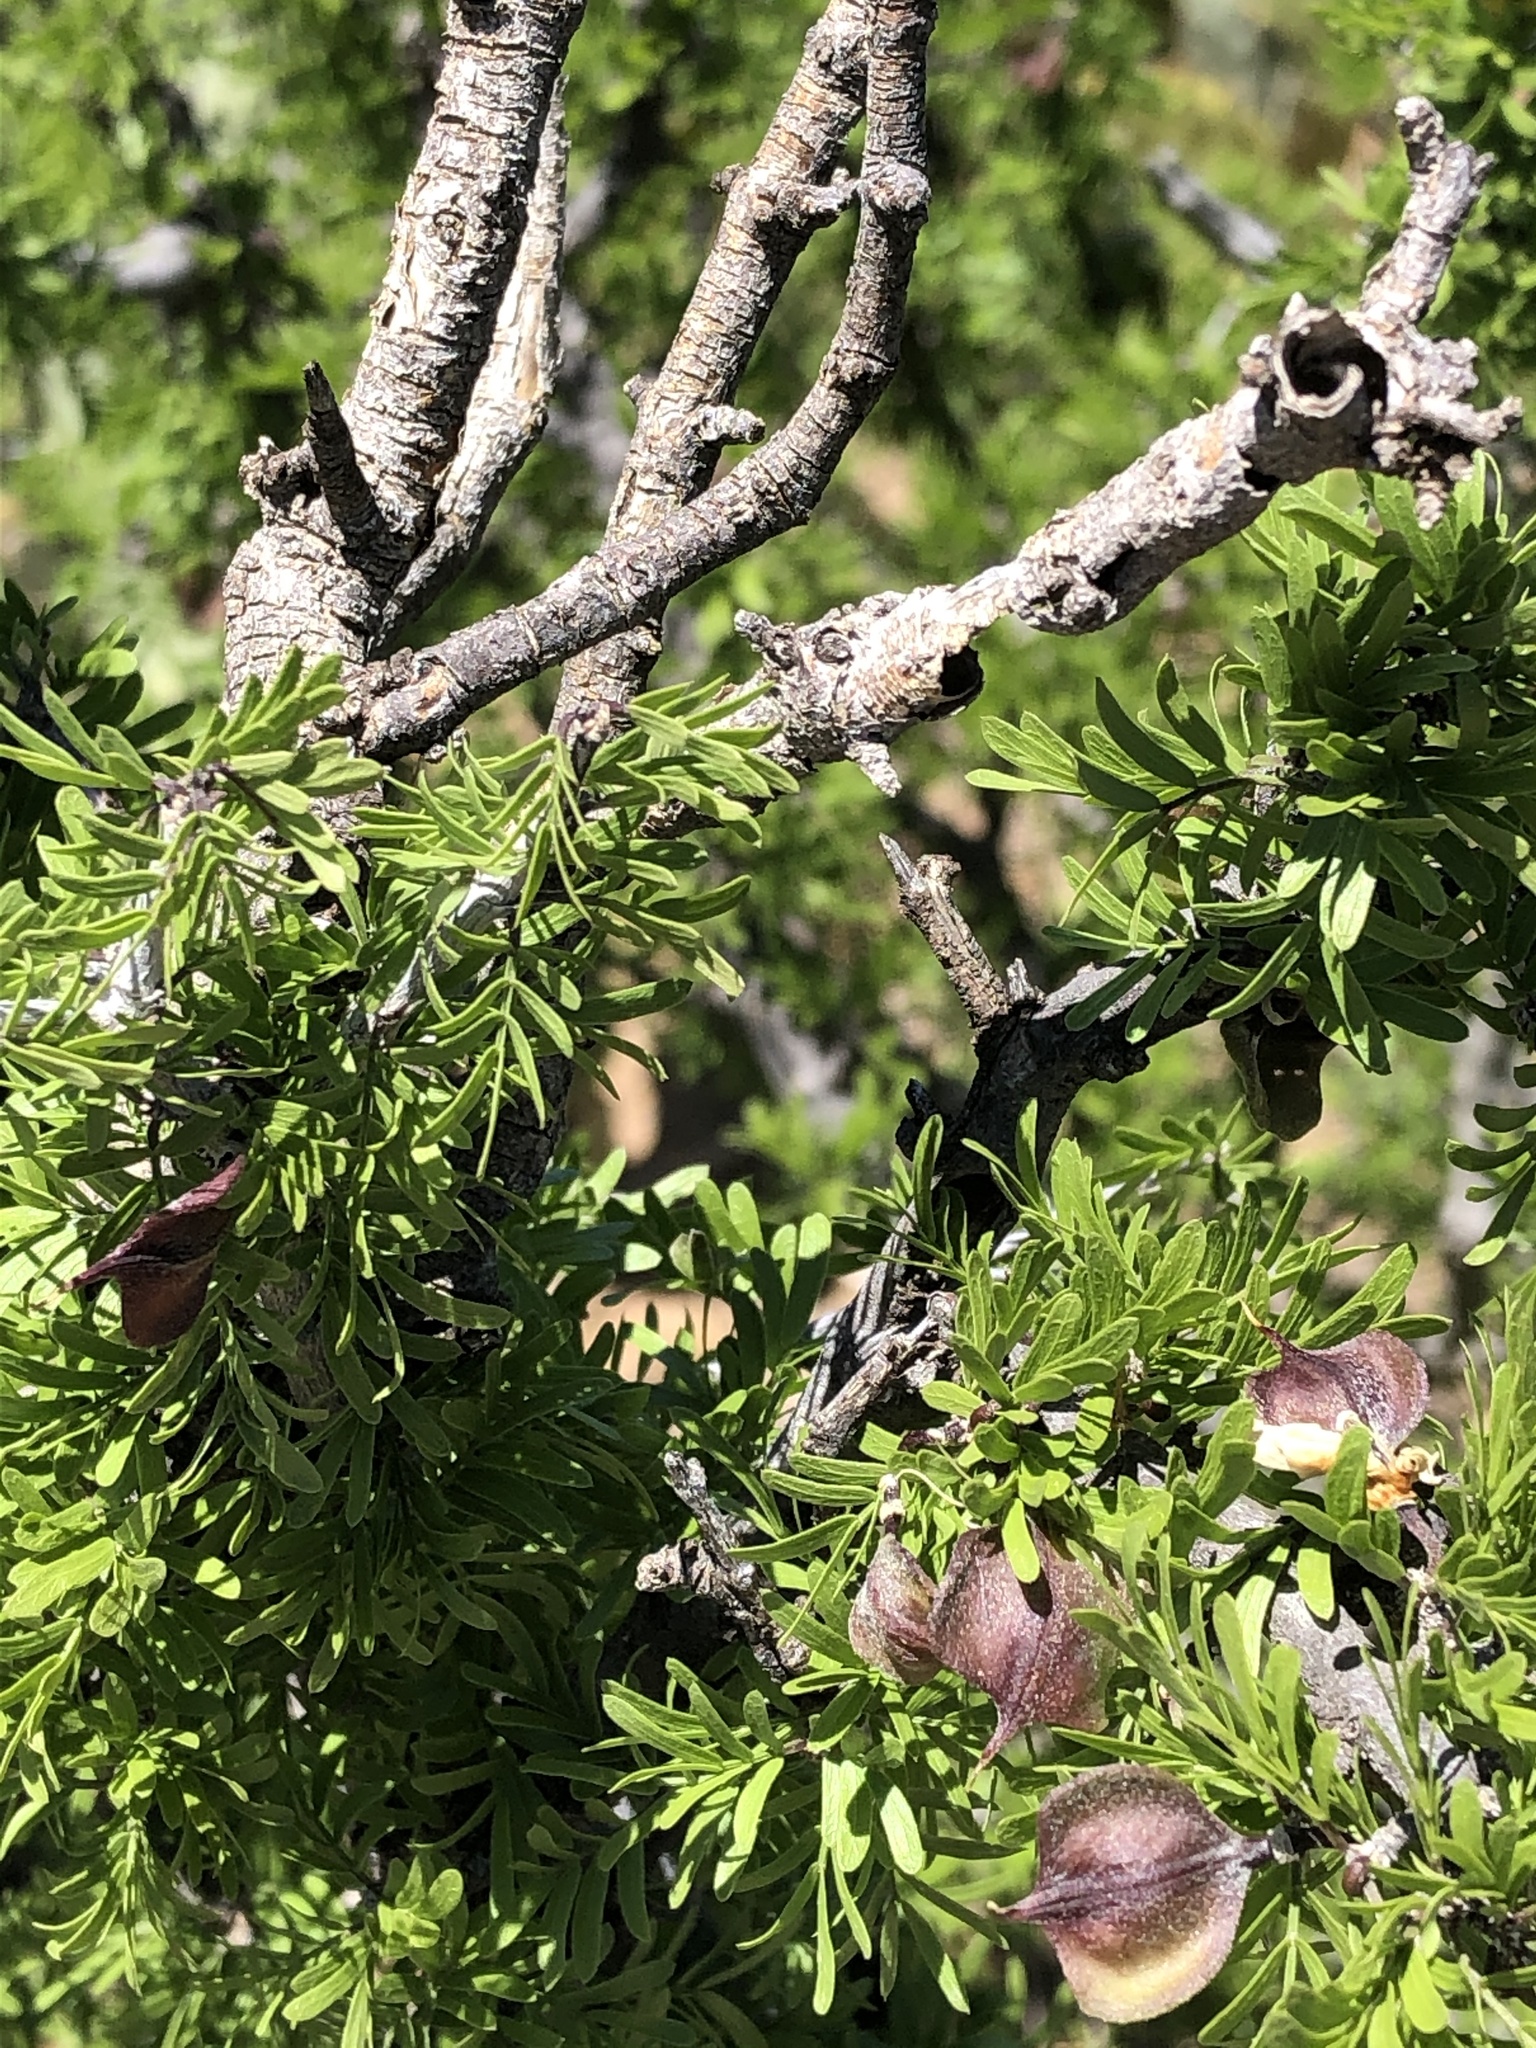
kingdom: Plantae
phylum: Tracheophyta
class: Magnoliopsida
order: Zygophyllales
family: Zygophyllaceae
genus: Porlieria
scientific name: Porlieria angustifolia
